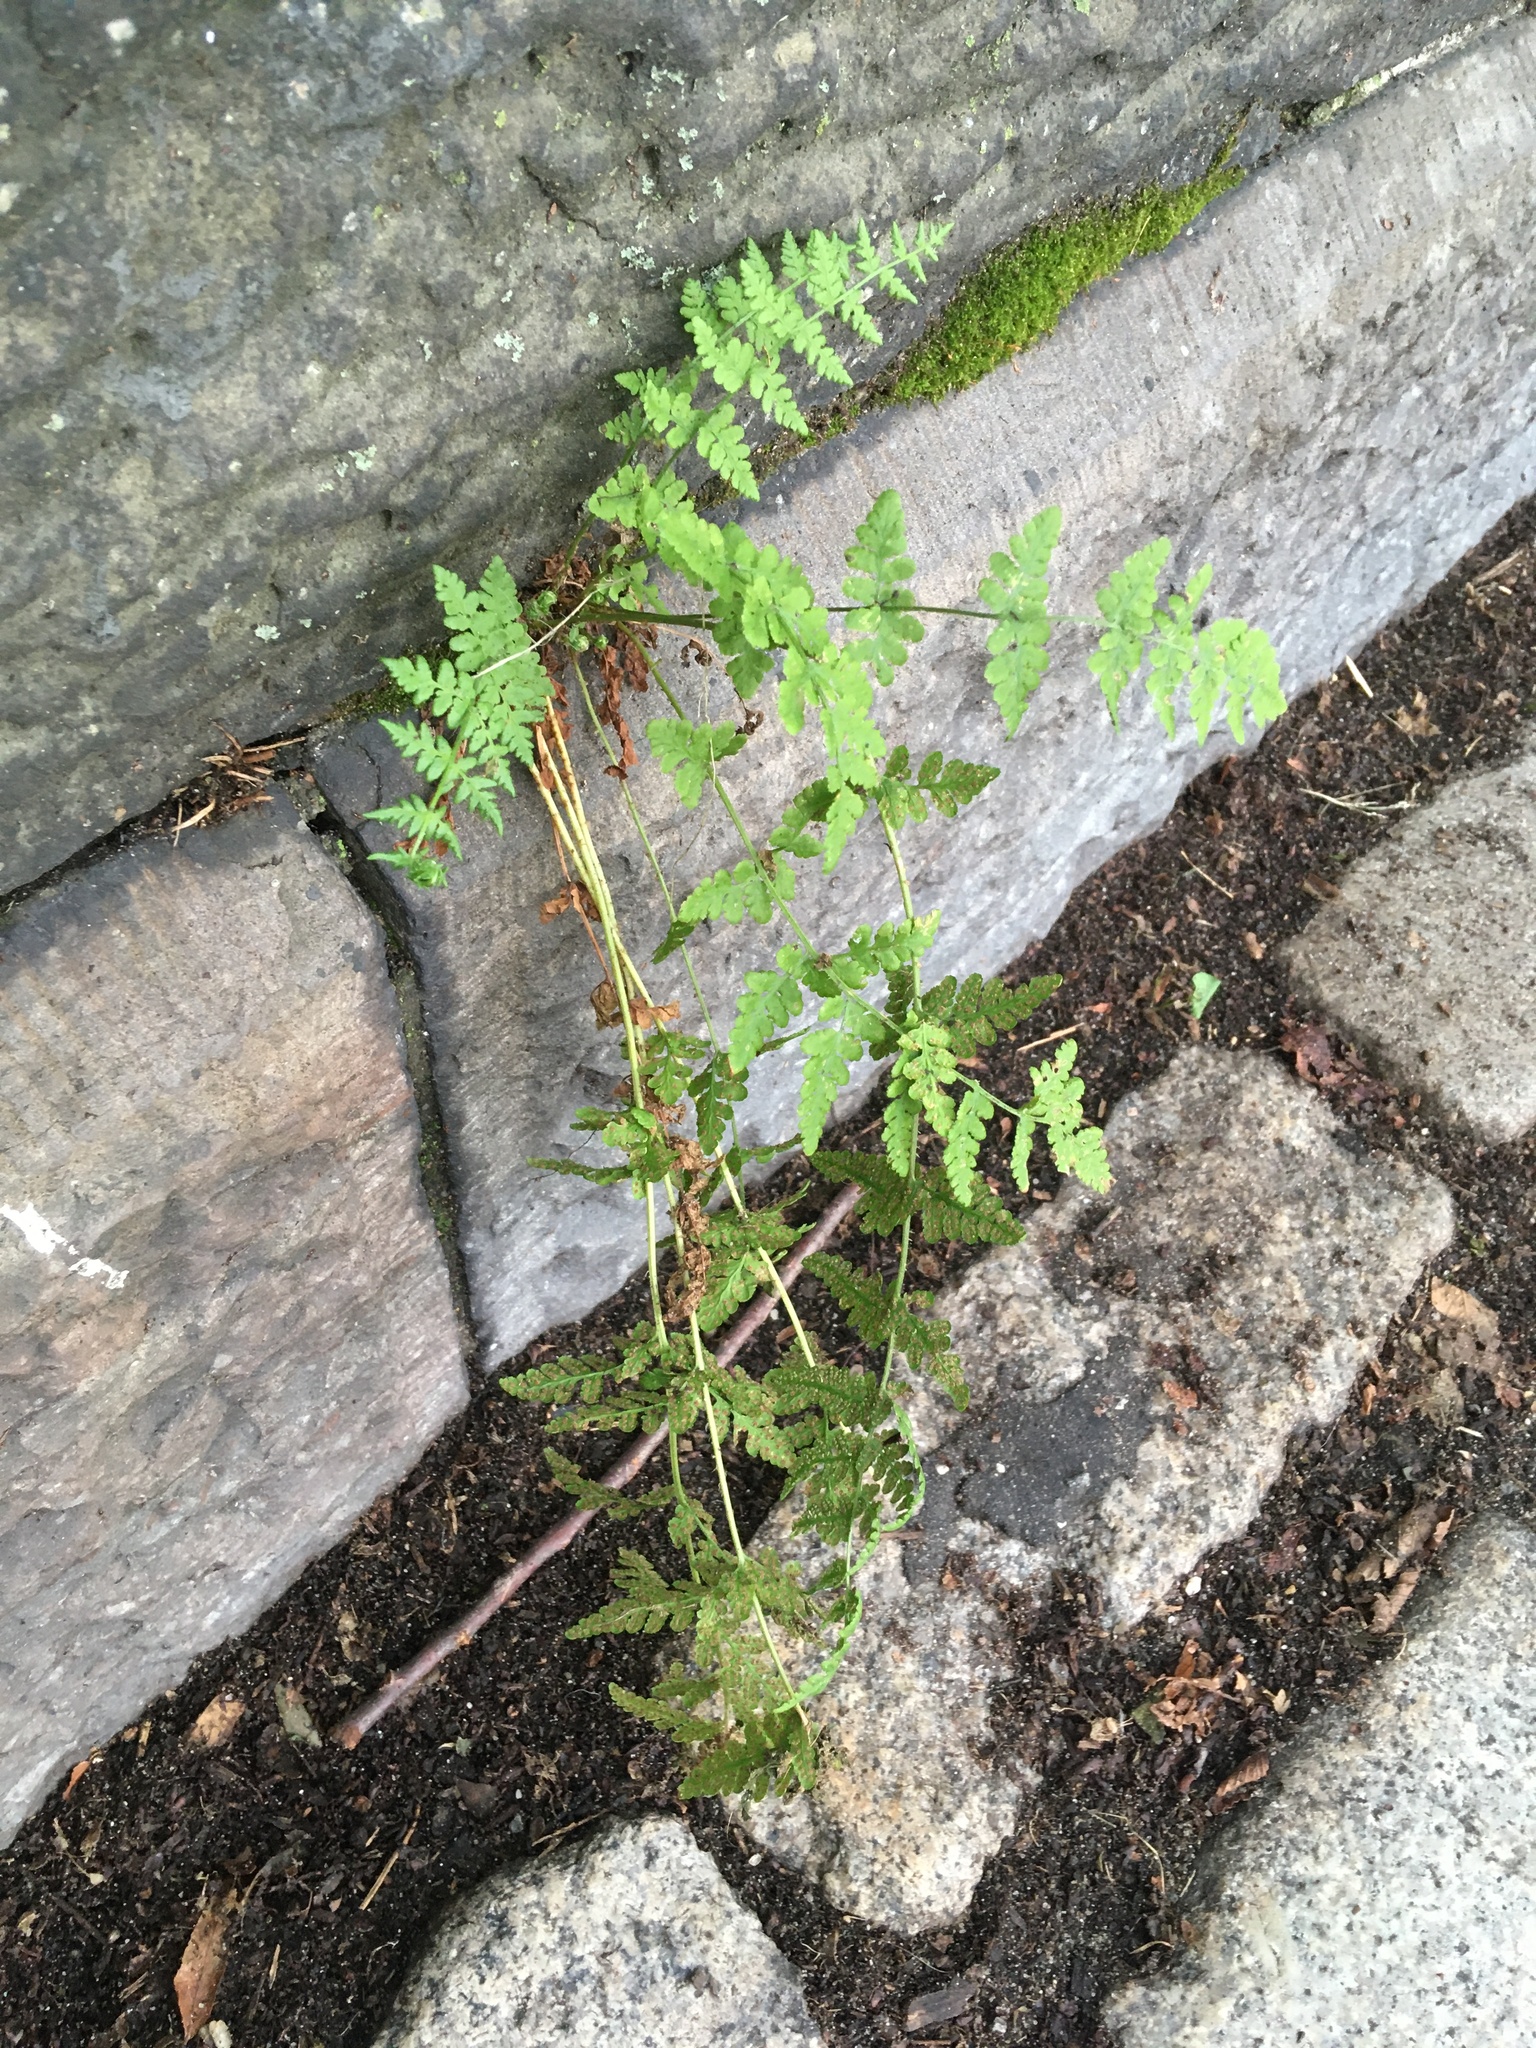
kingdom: Plantae
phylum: Tracheophyta
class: Polypodiopsida
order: Polypodiales
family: Woodsiaceae
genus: Physematium
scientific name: Physematium obtusum
